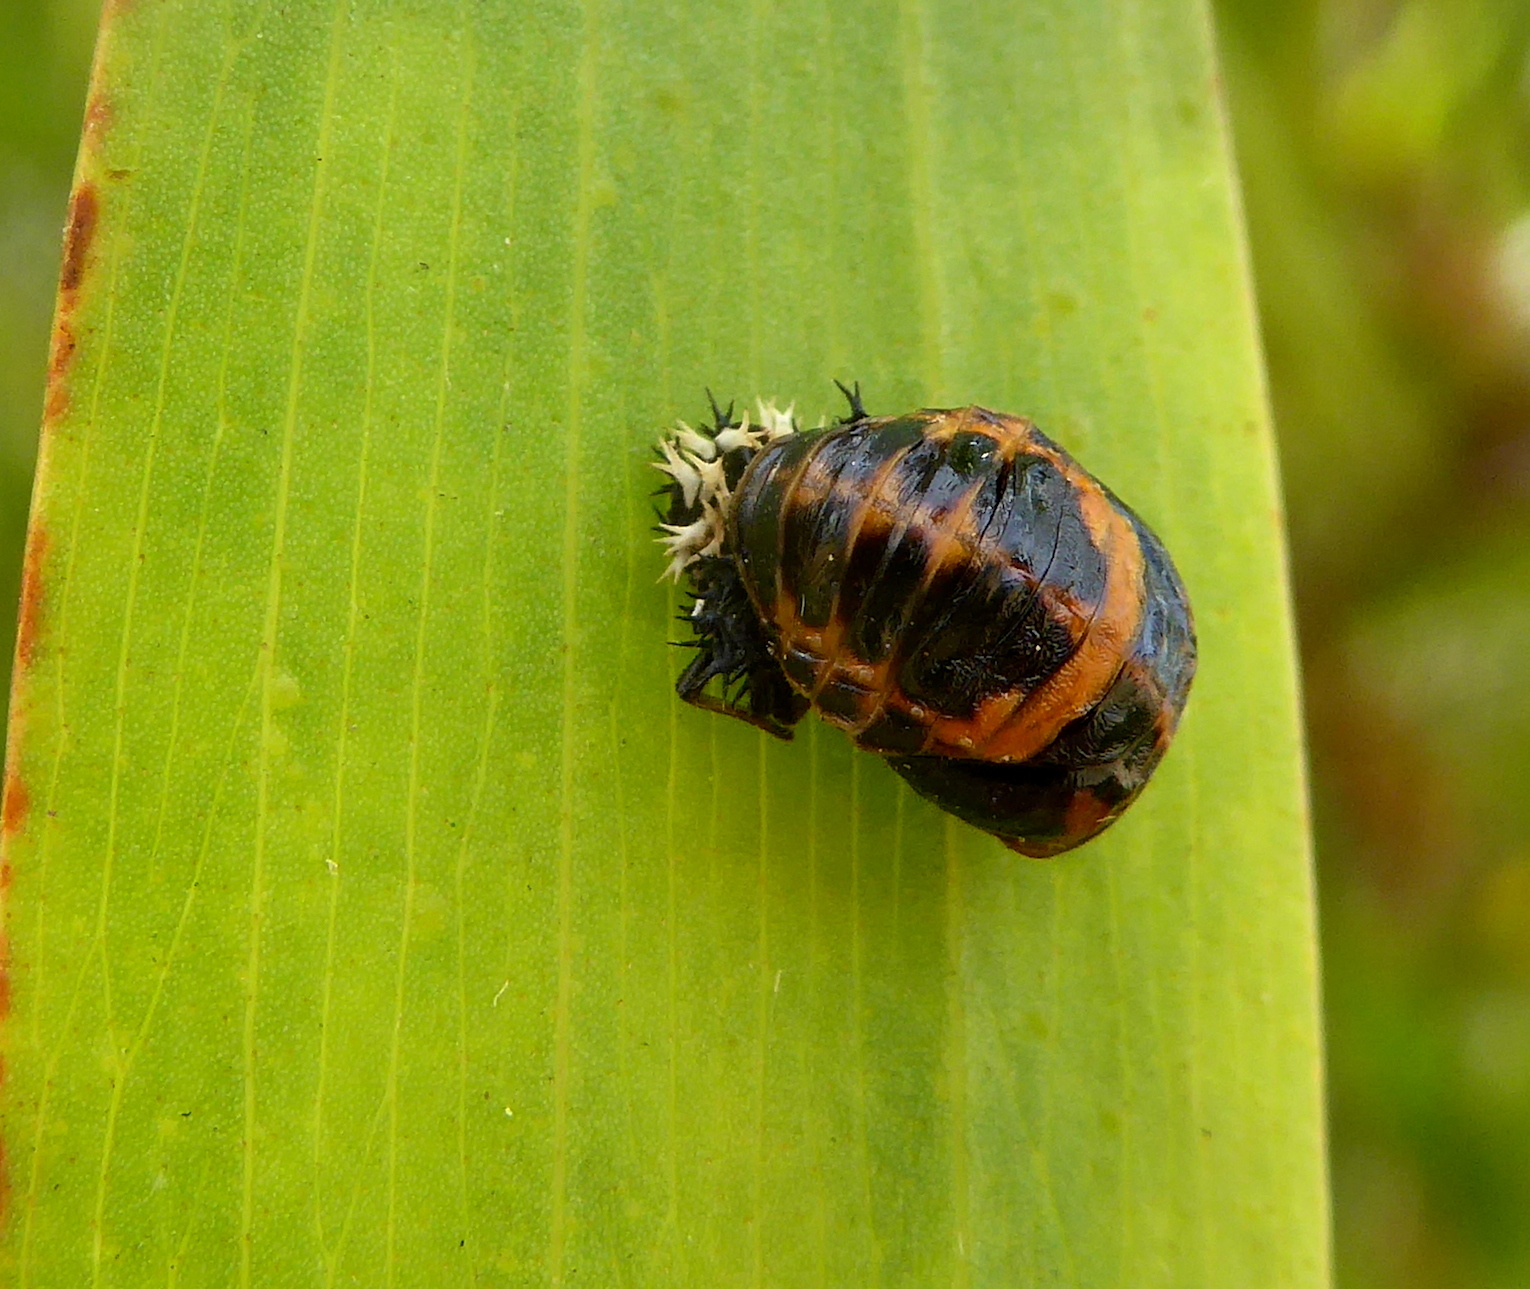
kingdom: Animalia
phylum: Arthropoda
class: Insecta
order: Coleoptera
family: Coccinellidae
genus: Harmonia
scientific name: Harmonia axyridis
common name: Harlequin ladybird
